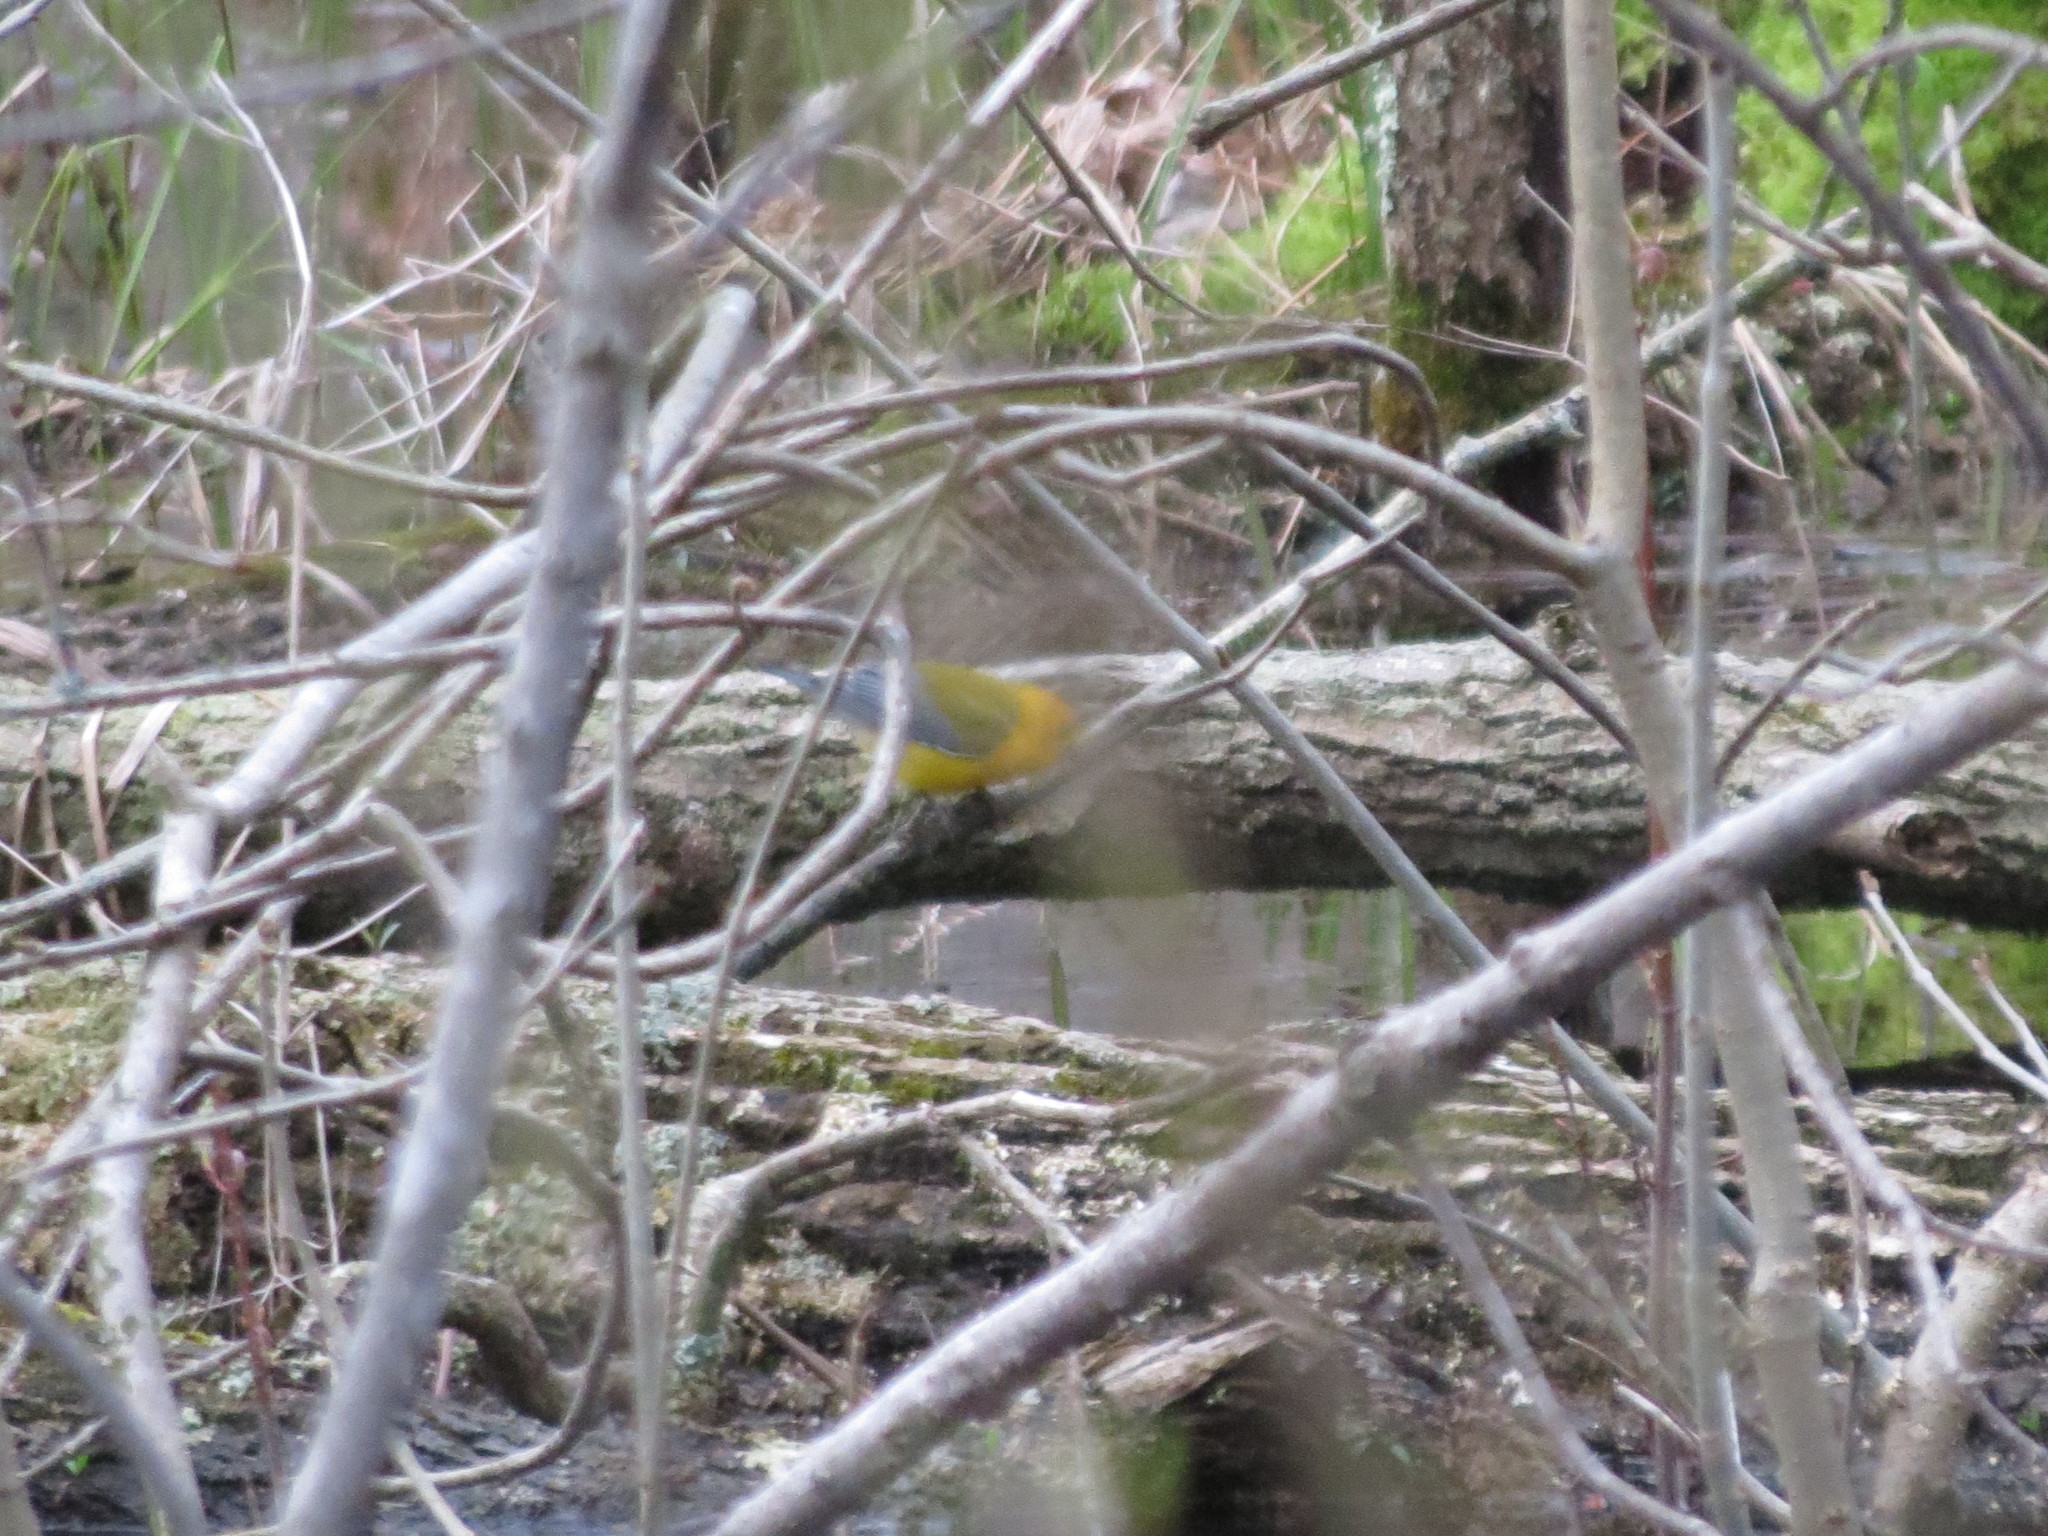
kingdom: Animalia
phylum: Chordata
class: Aves
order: Passeriformes
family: Parulidae
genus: Protonotaria
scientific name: Protonotaria citrea
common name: Prothonotary warbler
